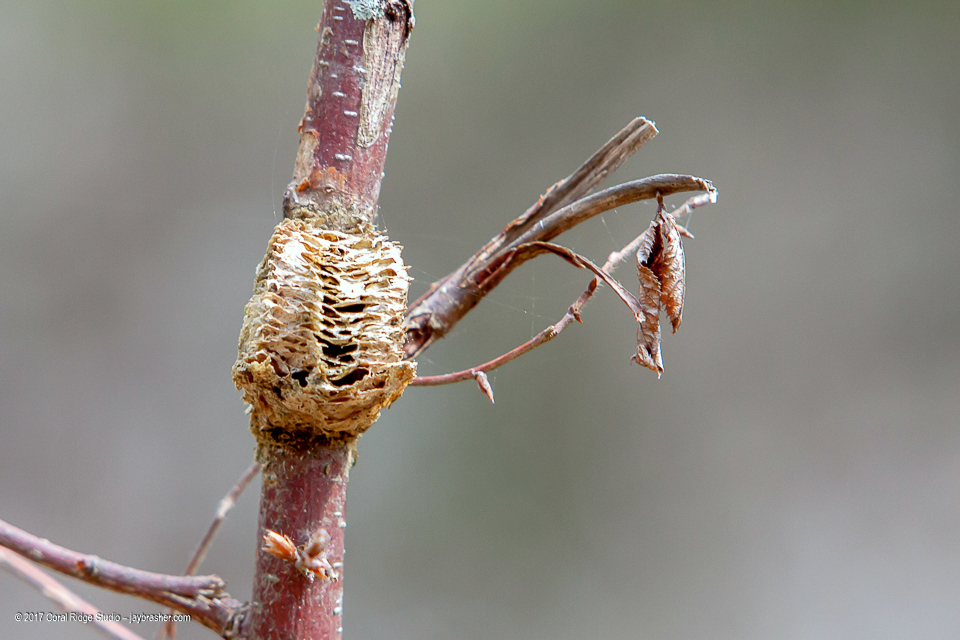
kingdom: Animalia
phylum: Arthropoda
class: Insecta
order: Mantodea
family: Mantidae
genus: Tenodera
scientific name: Tenodera sinensis
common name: Chinese mantis
